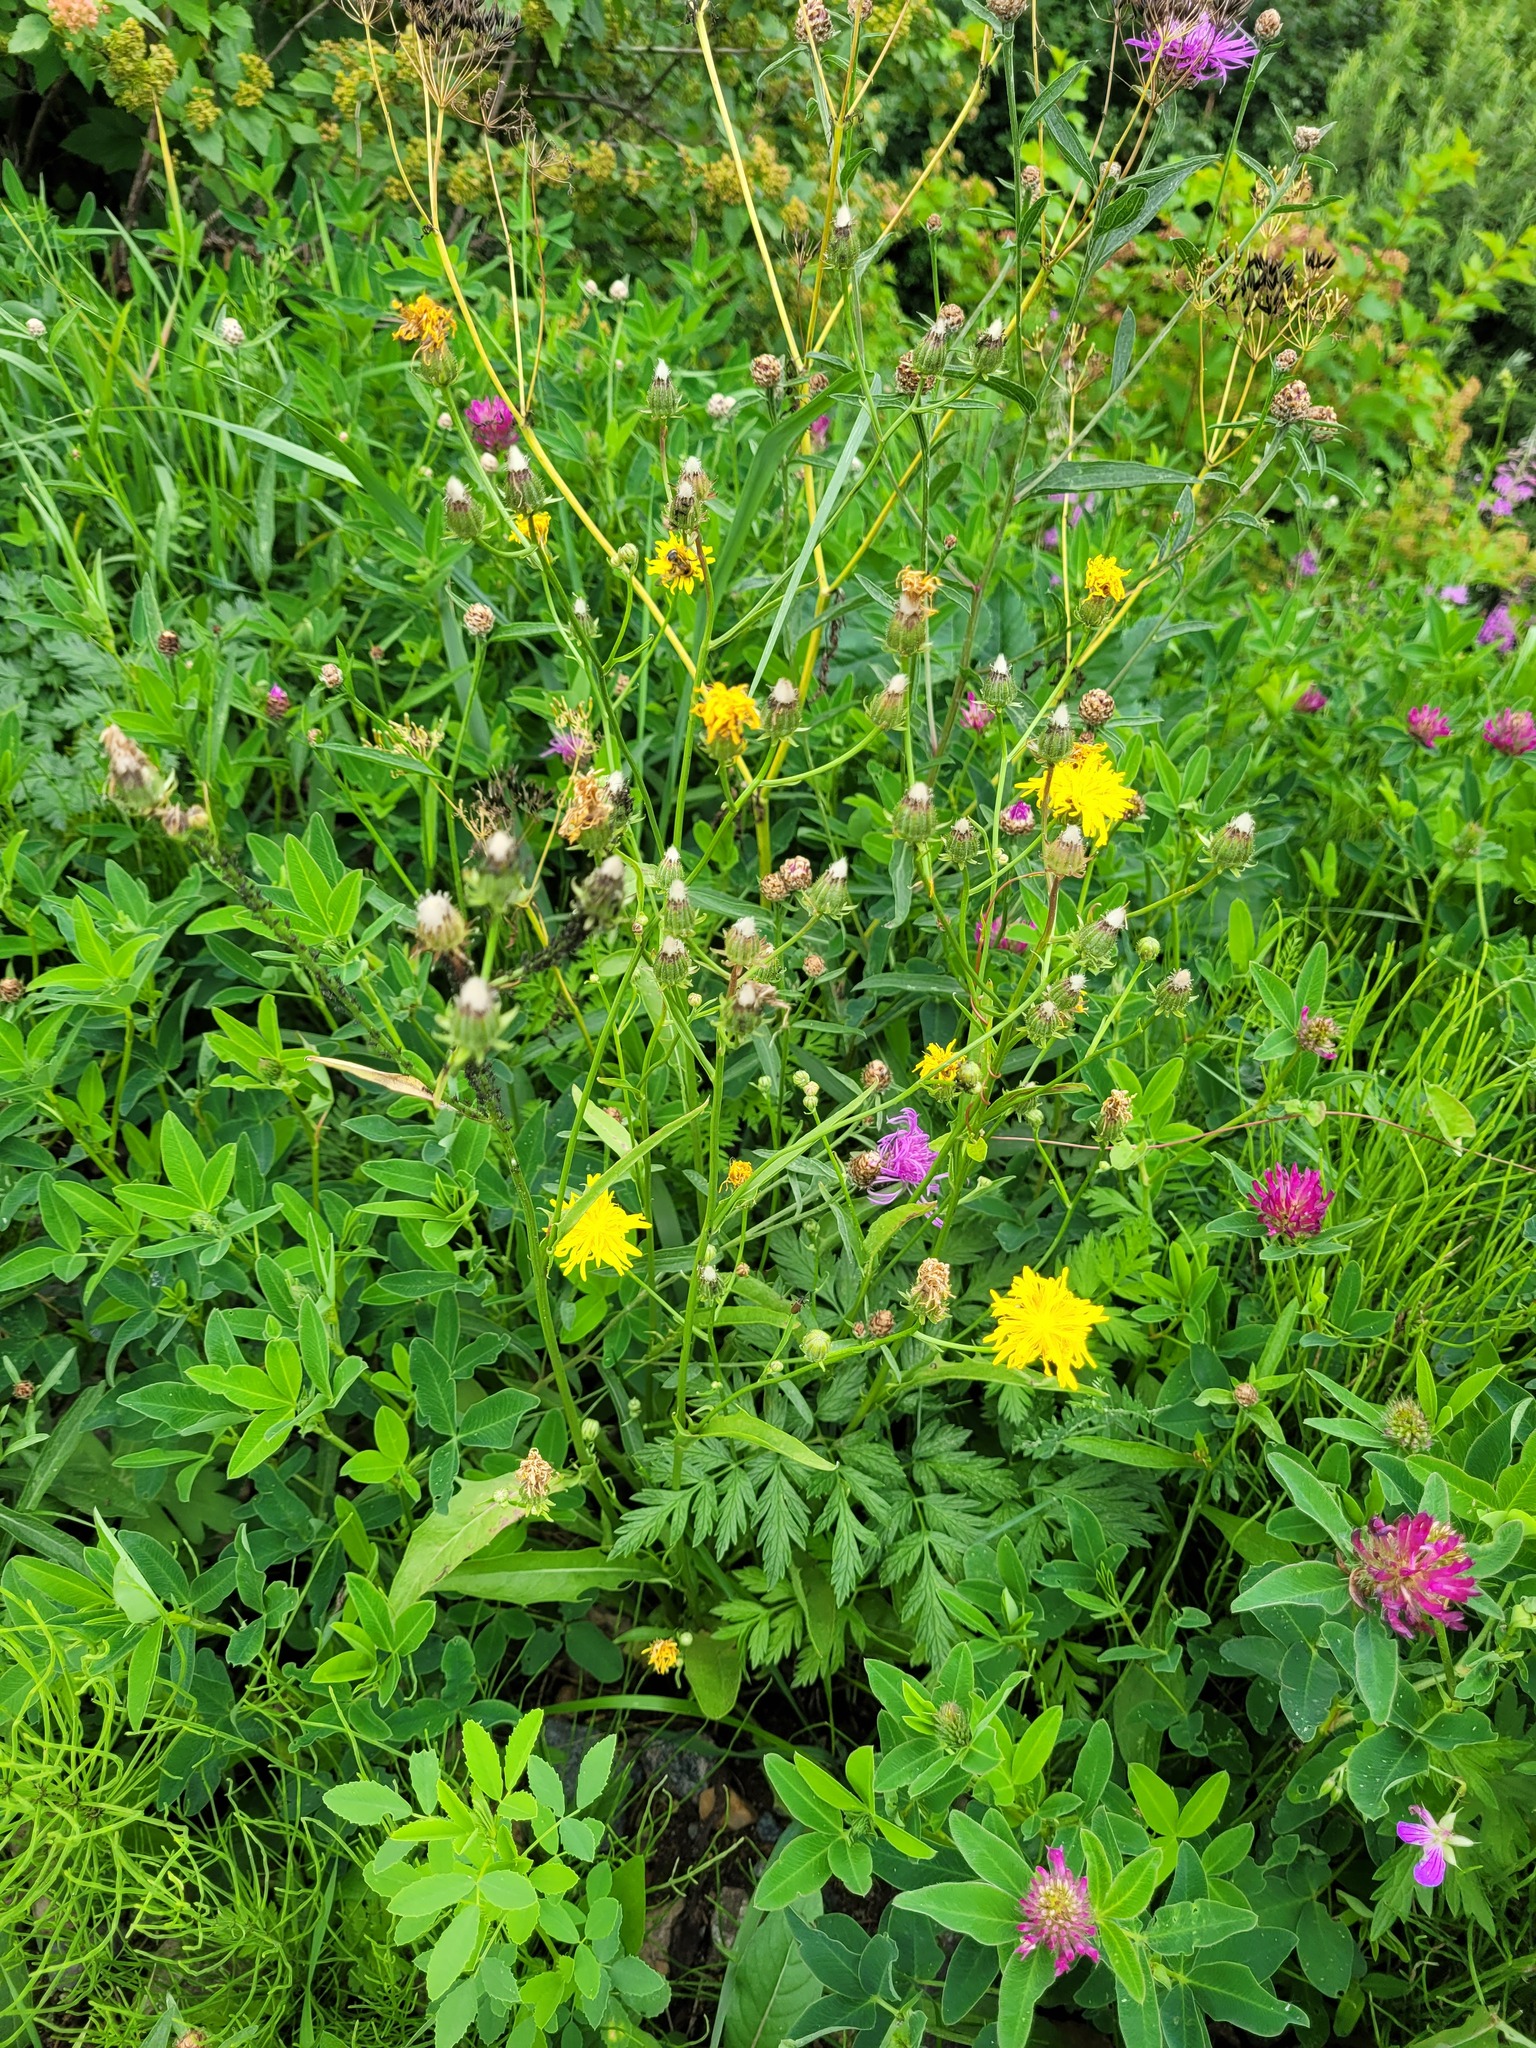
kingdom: Plantae
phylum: Tracheophyta
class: Magnoliopsida
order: Asterales
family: Asteraceae
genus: Crepis
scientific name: Crepis biennis
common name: Rough hawk's-beard
